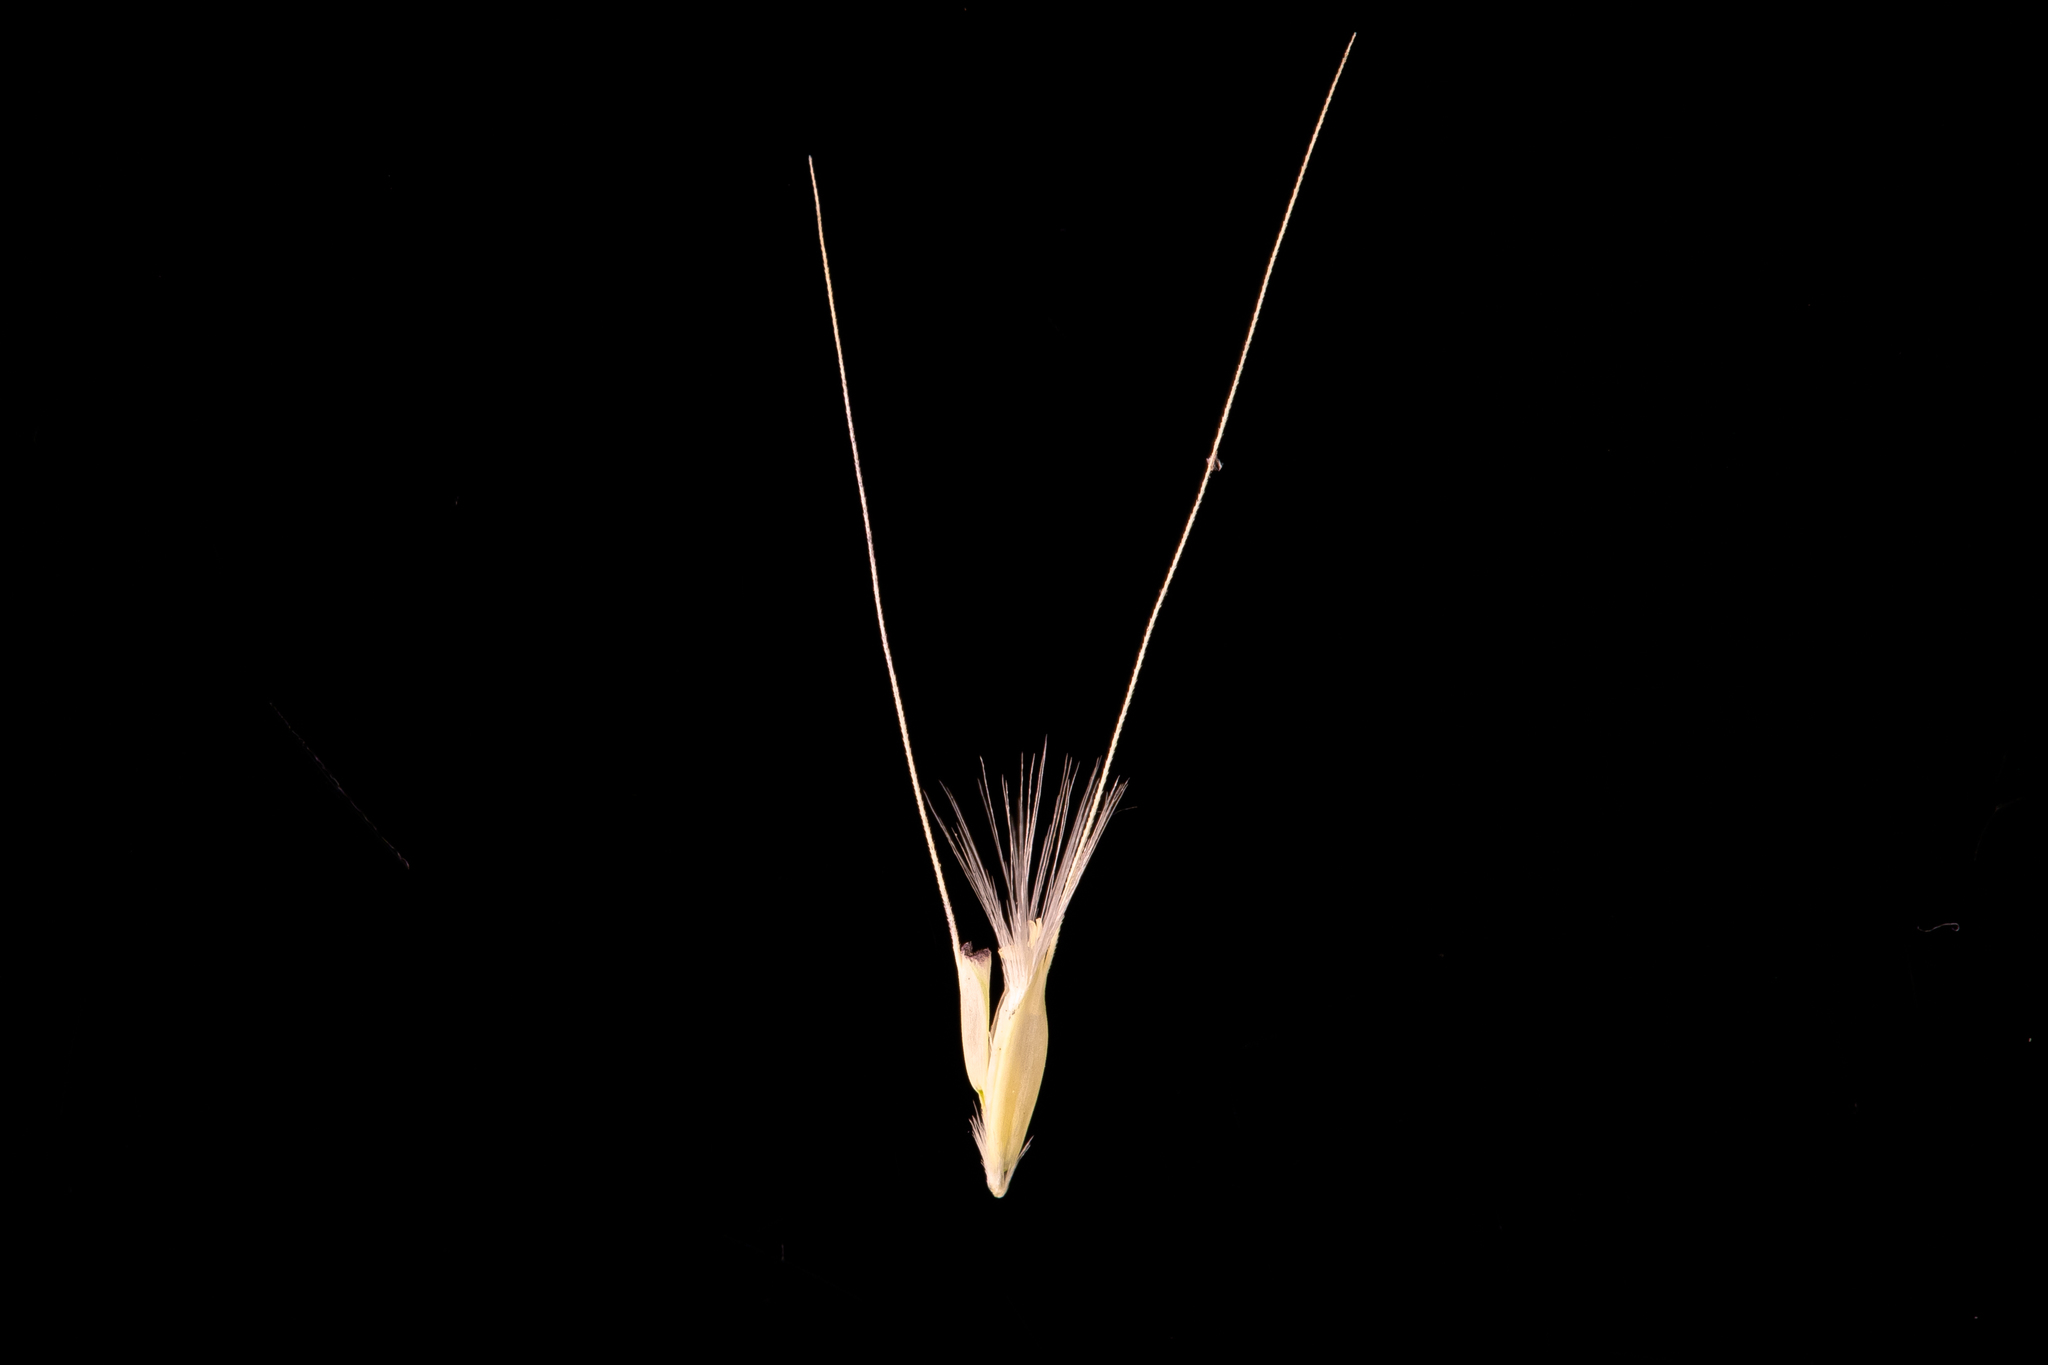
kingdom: Plantae
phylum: Tracheophyta
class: Liliopsida
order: Poales
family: Poaceae
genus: Chloris
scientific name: Chloris virgata
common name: Feathery rhodes-grass
